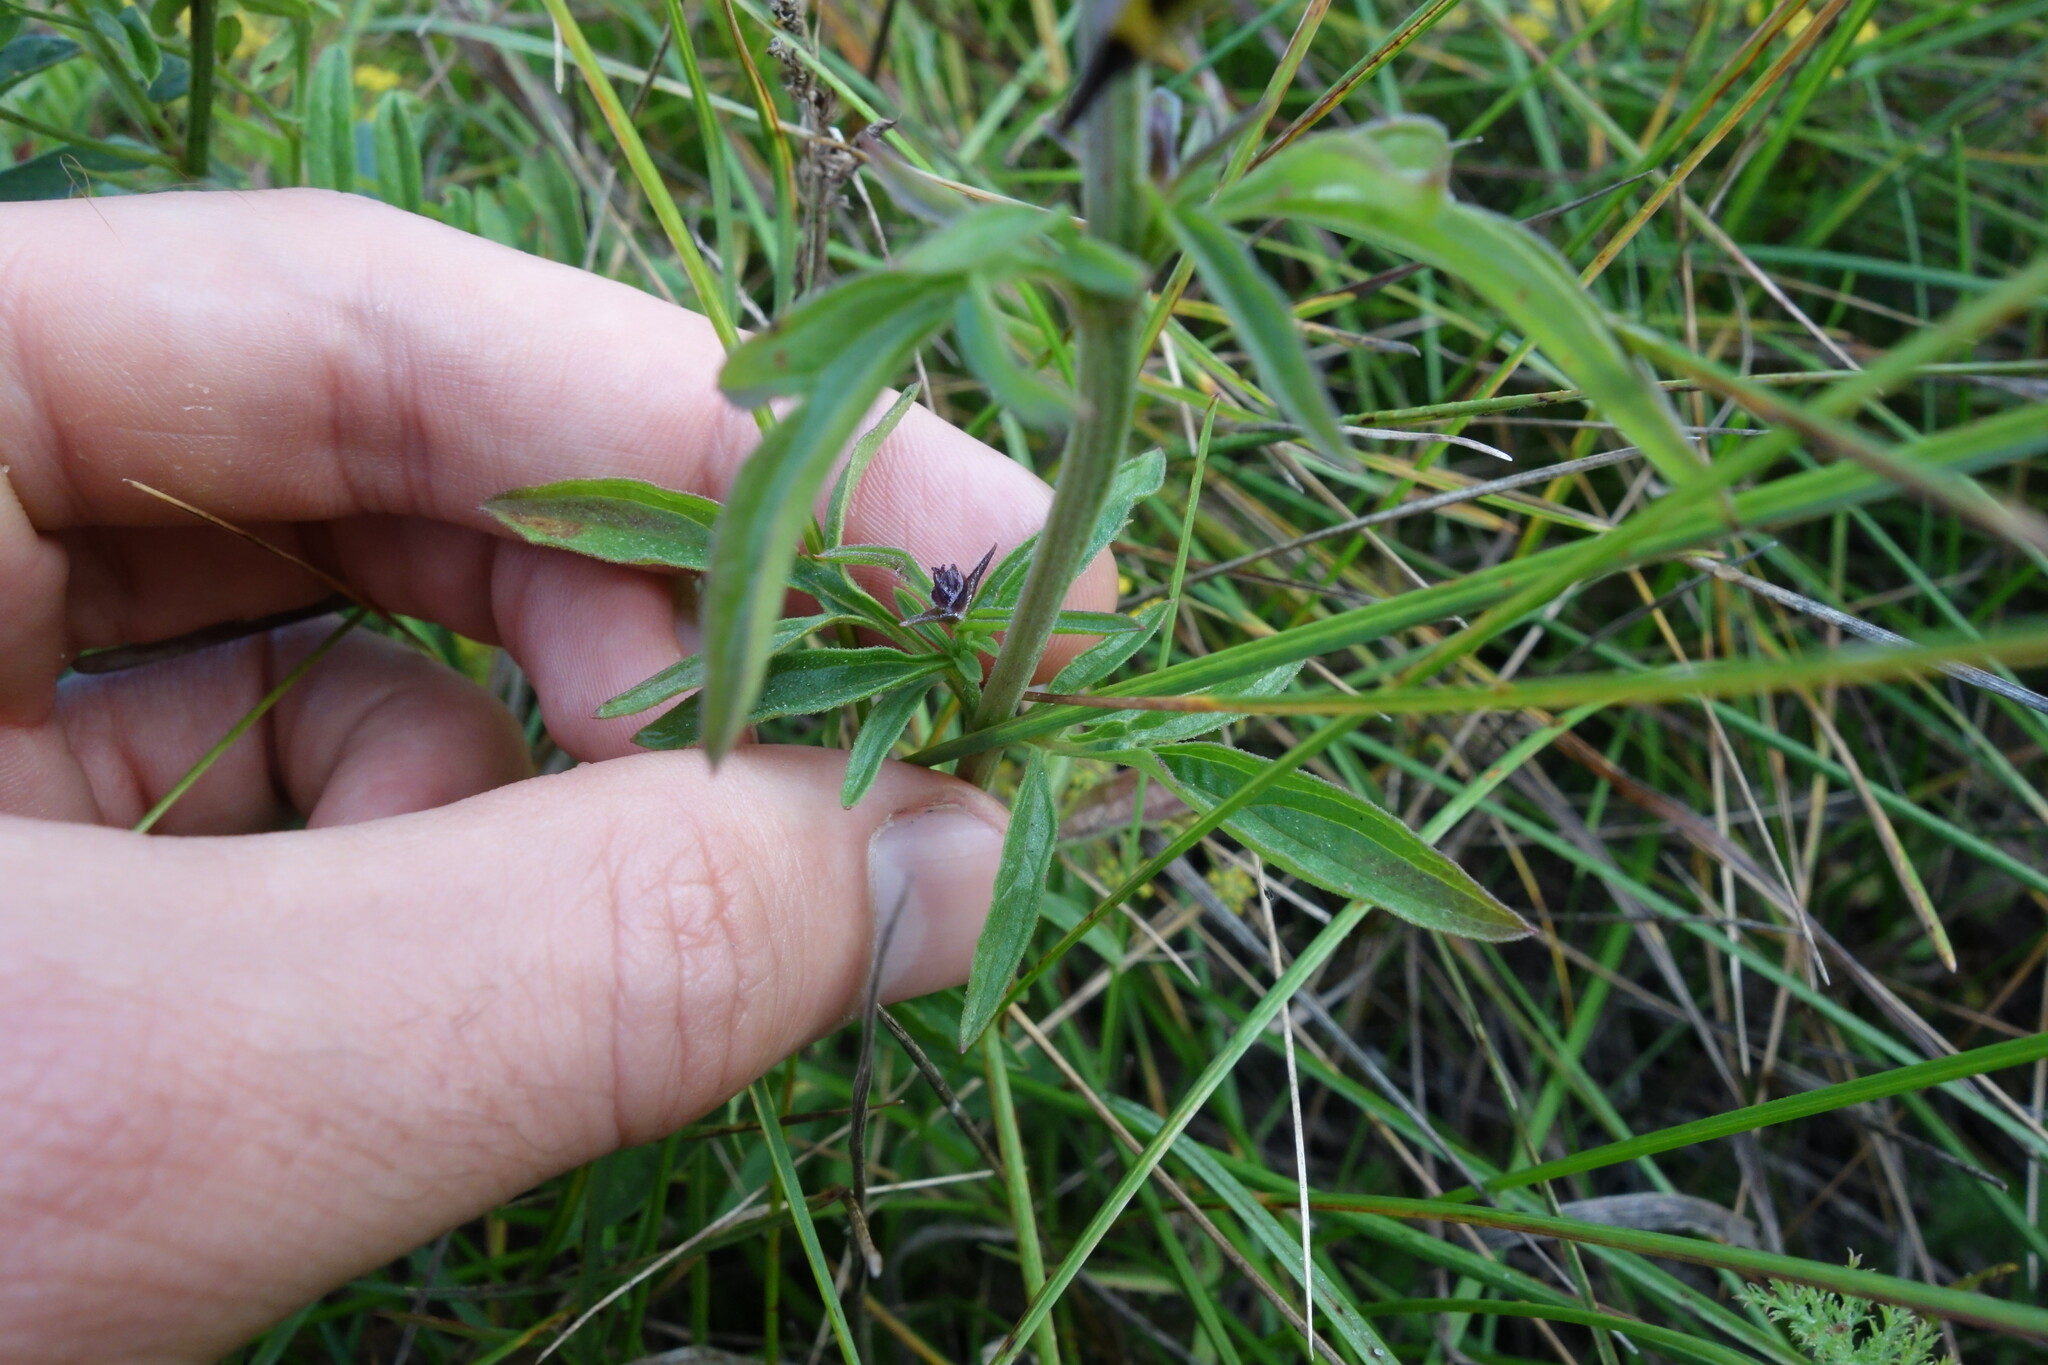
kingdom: Plantae
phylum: Tracheophyta
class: Magnoliopsida
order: Lamiales
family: Lamiaceae
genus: Nepeta
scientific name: Nepeta multifida
